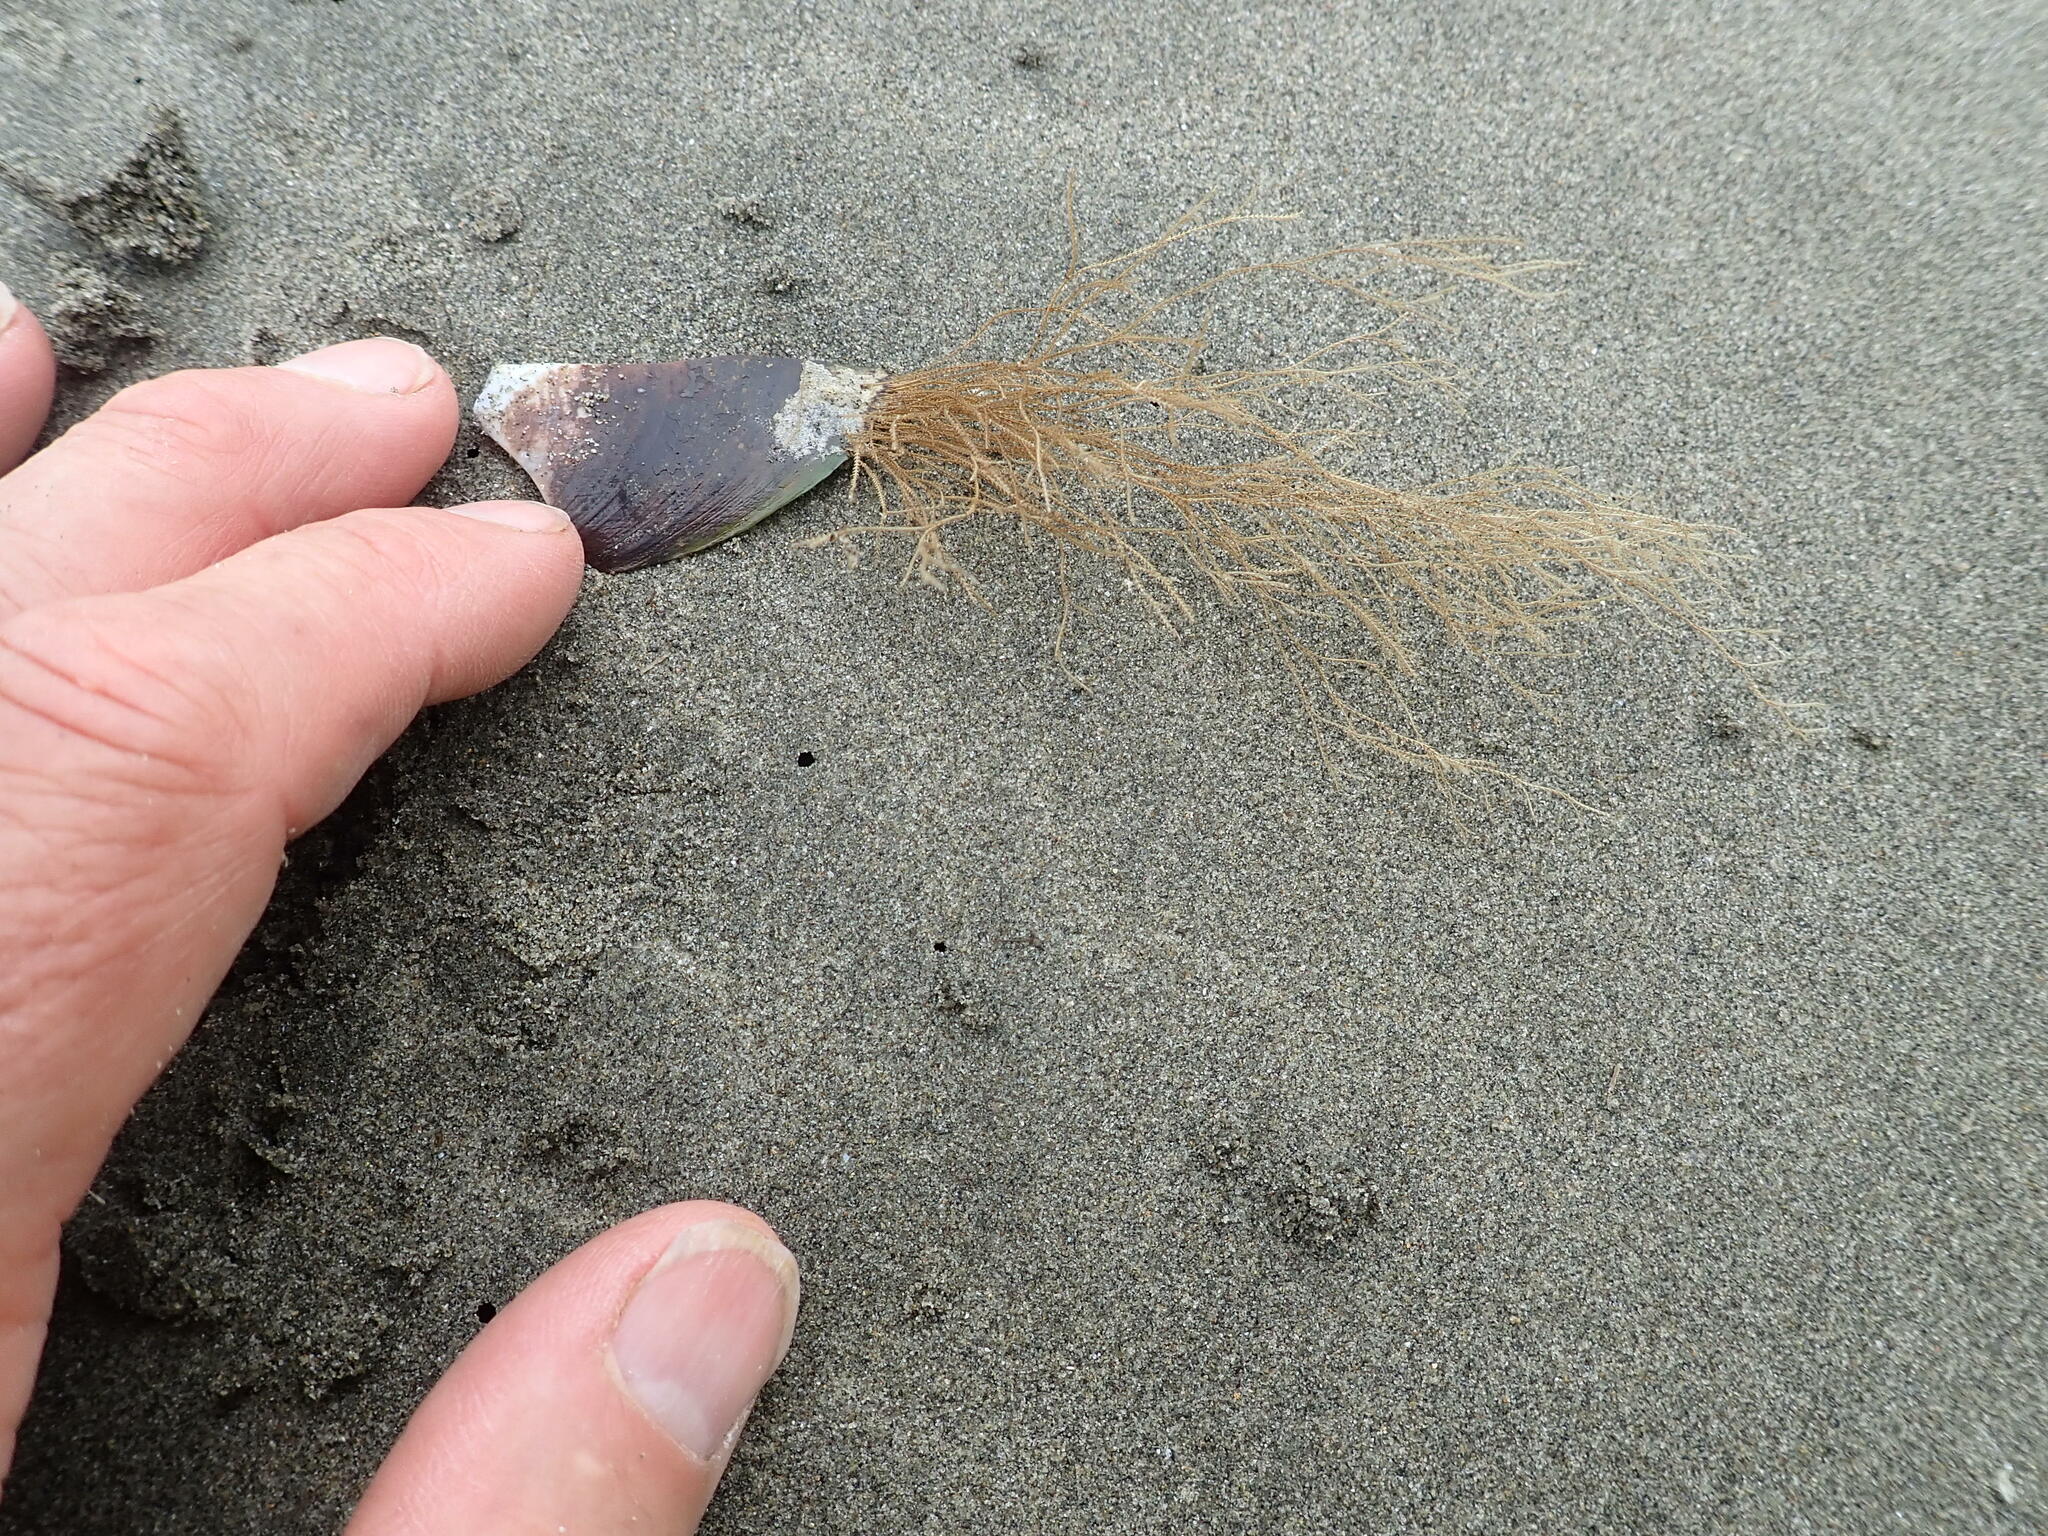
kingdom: Animalia
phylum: Cnidaria
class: Hydrozoa
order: Leptothecata
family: Sertulariidae
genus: Amphisbetia
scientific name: Amphisbetia bispinosa
